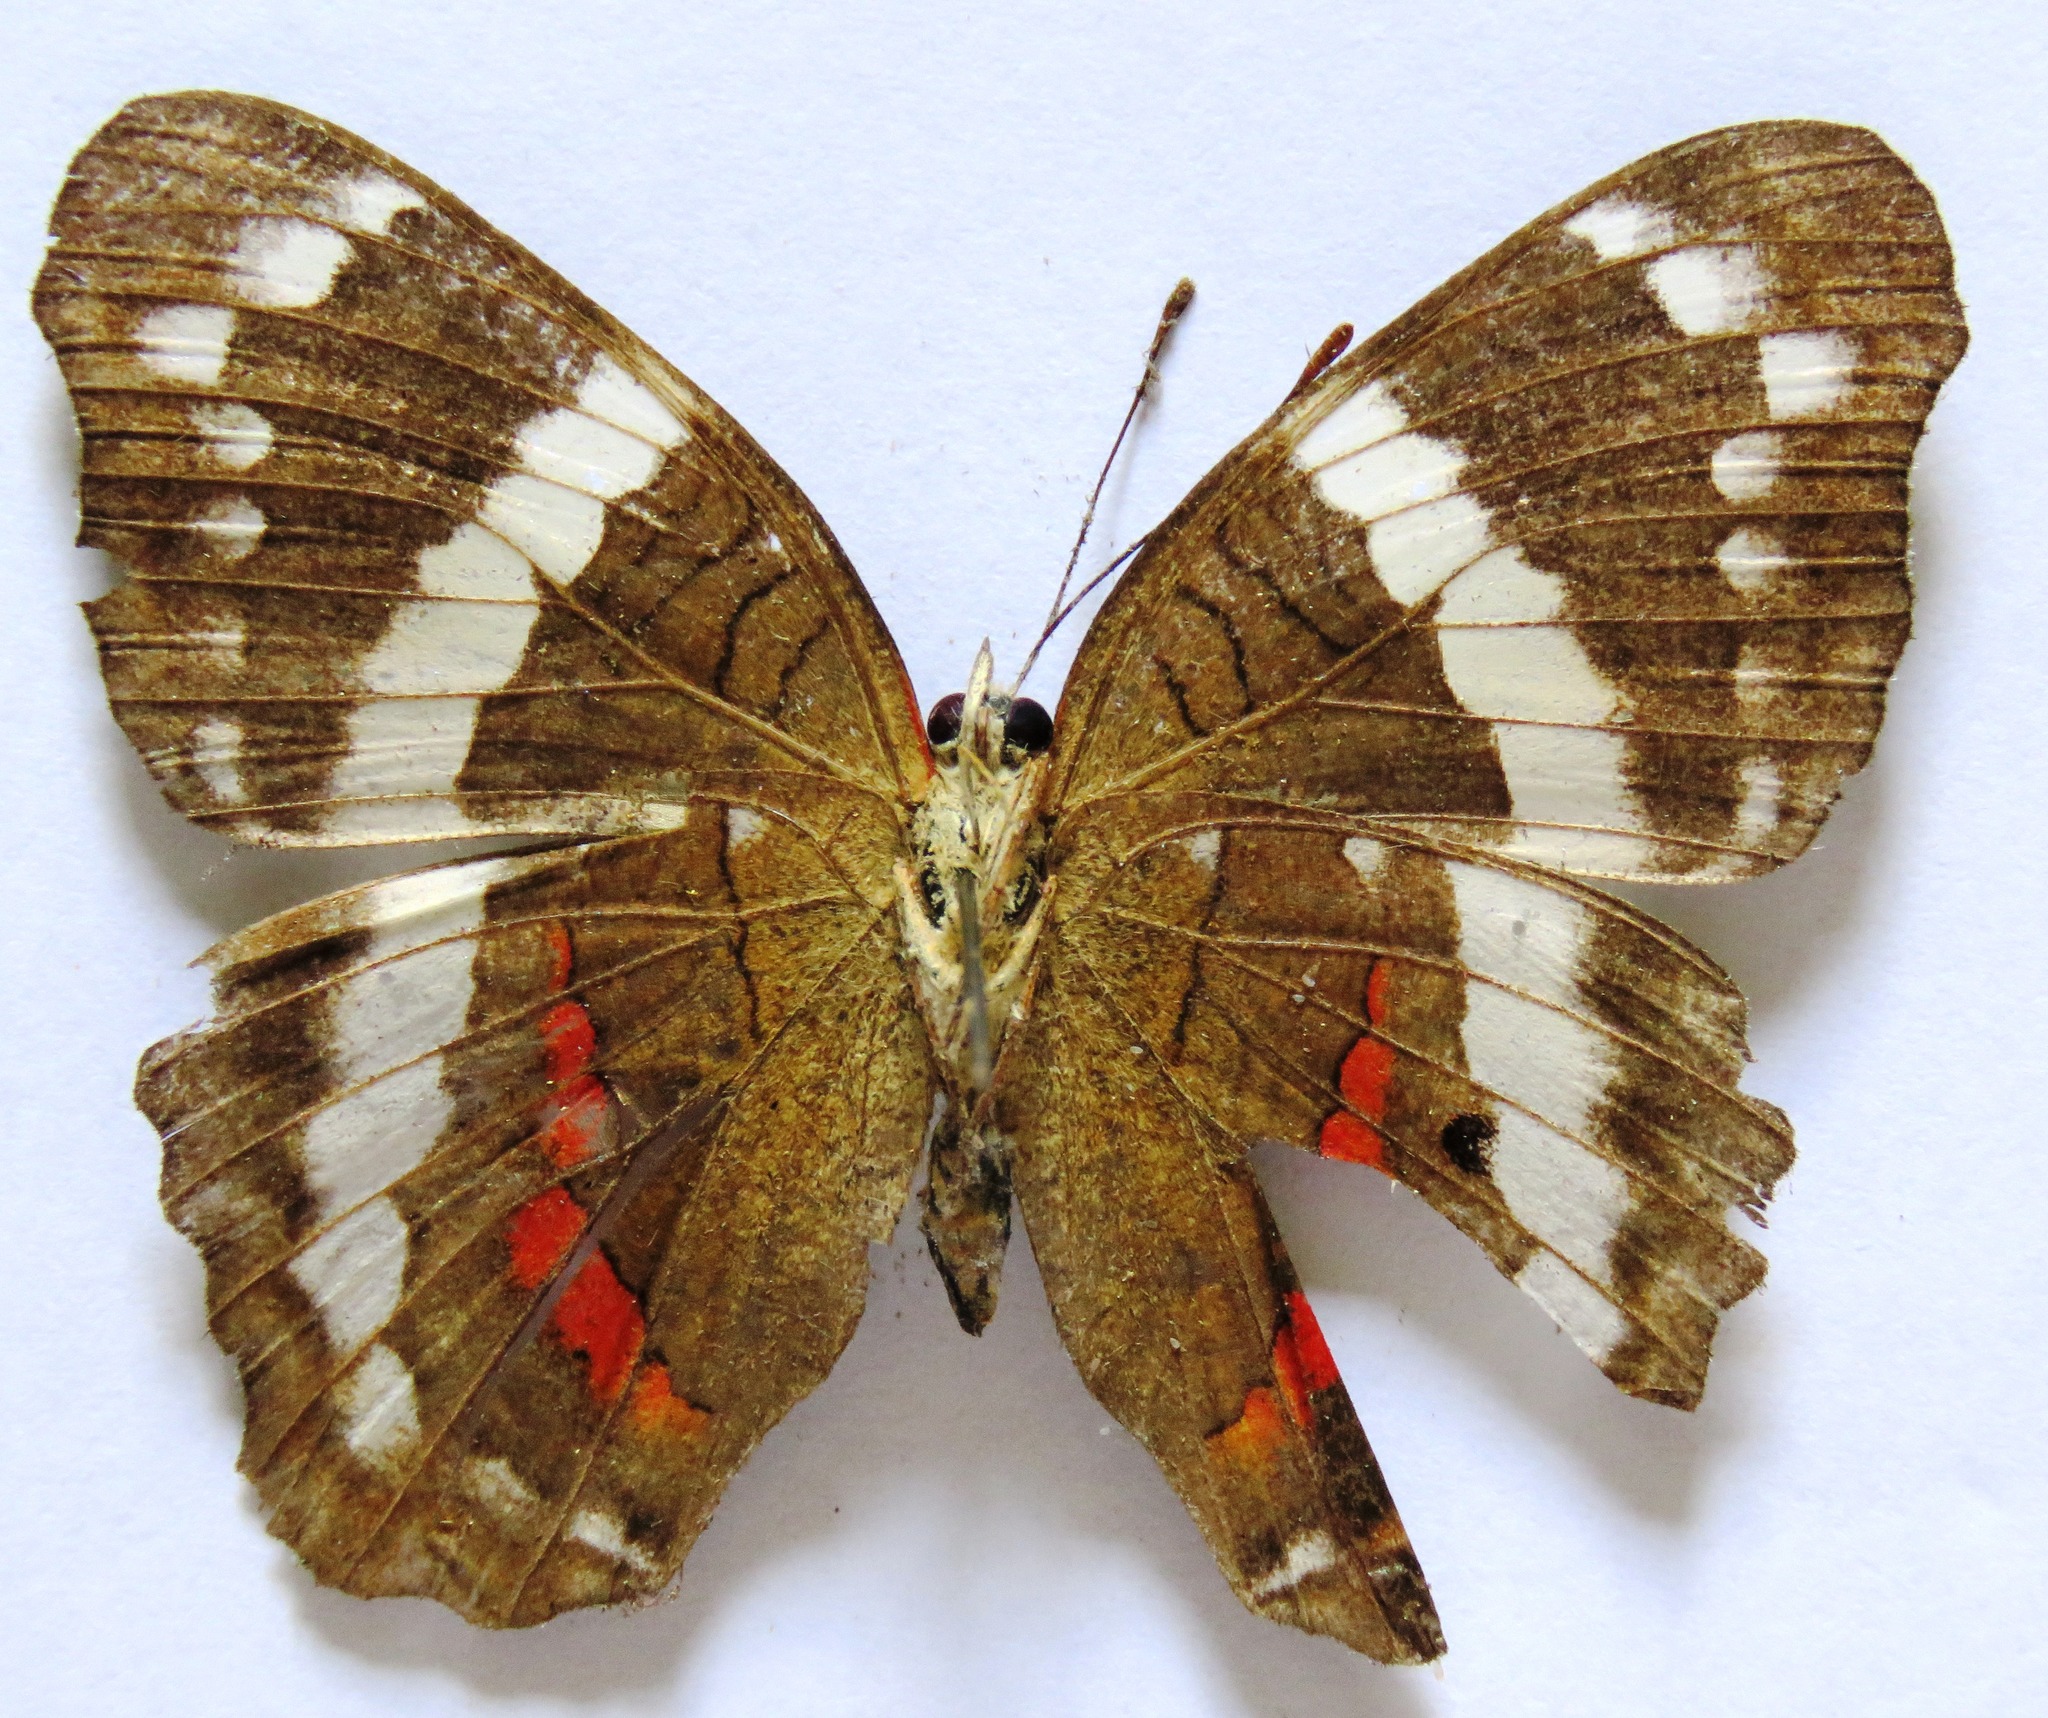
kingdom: Animalia
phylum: Arthropoda
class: Insecta
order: Lepidoptera
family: Nymphalidae
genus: Anartia
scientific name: Anartia fatima
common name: Banded peacock
